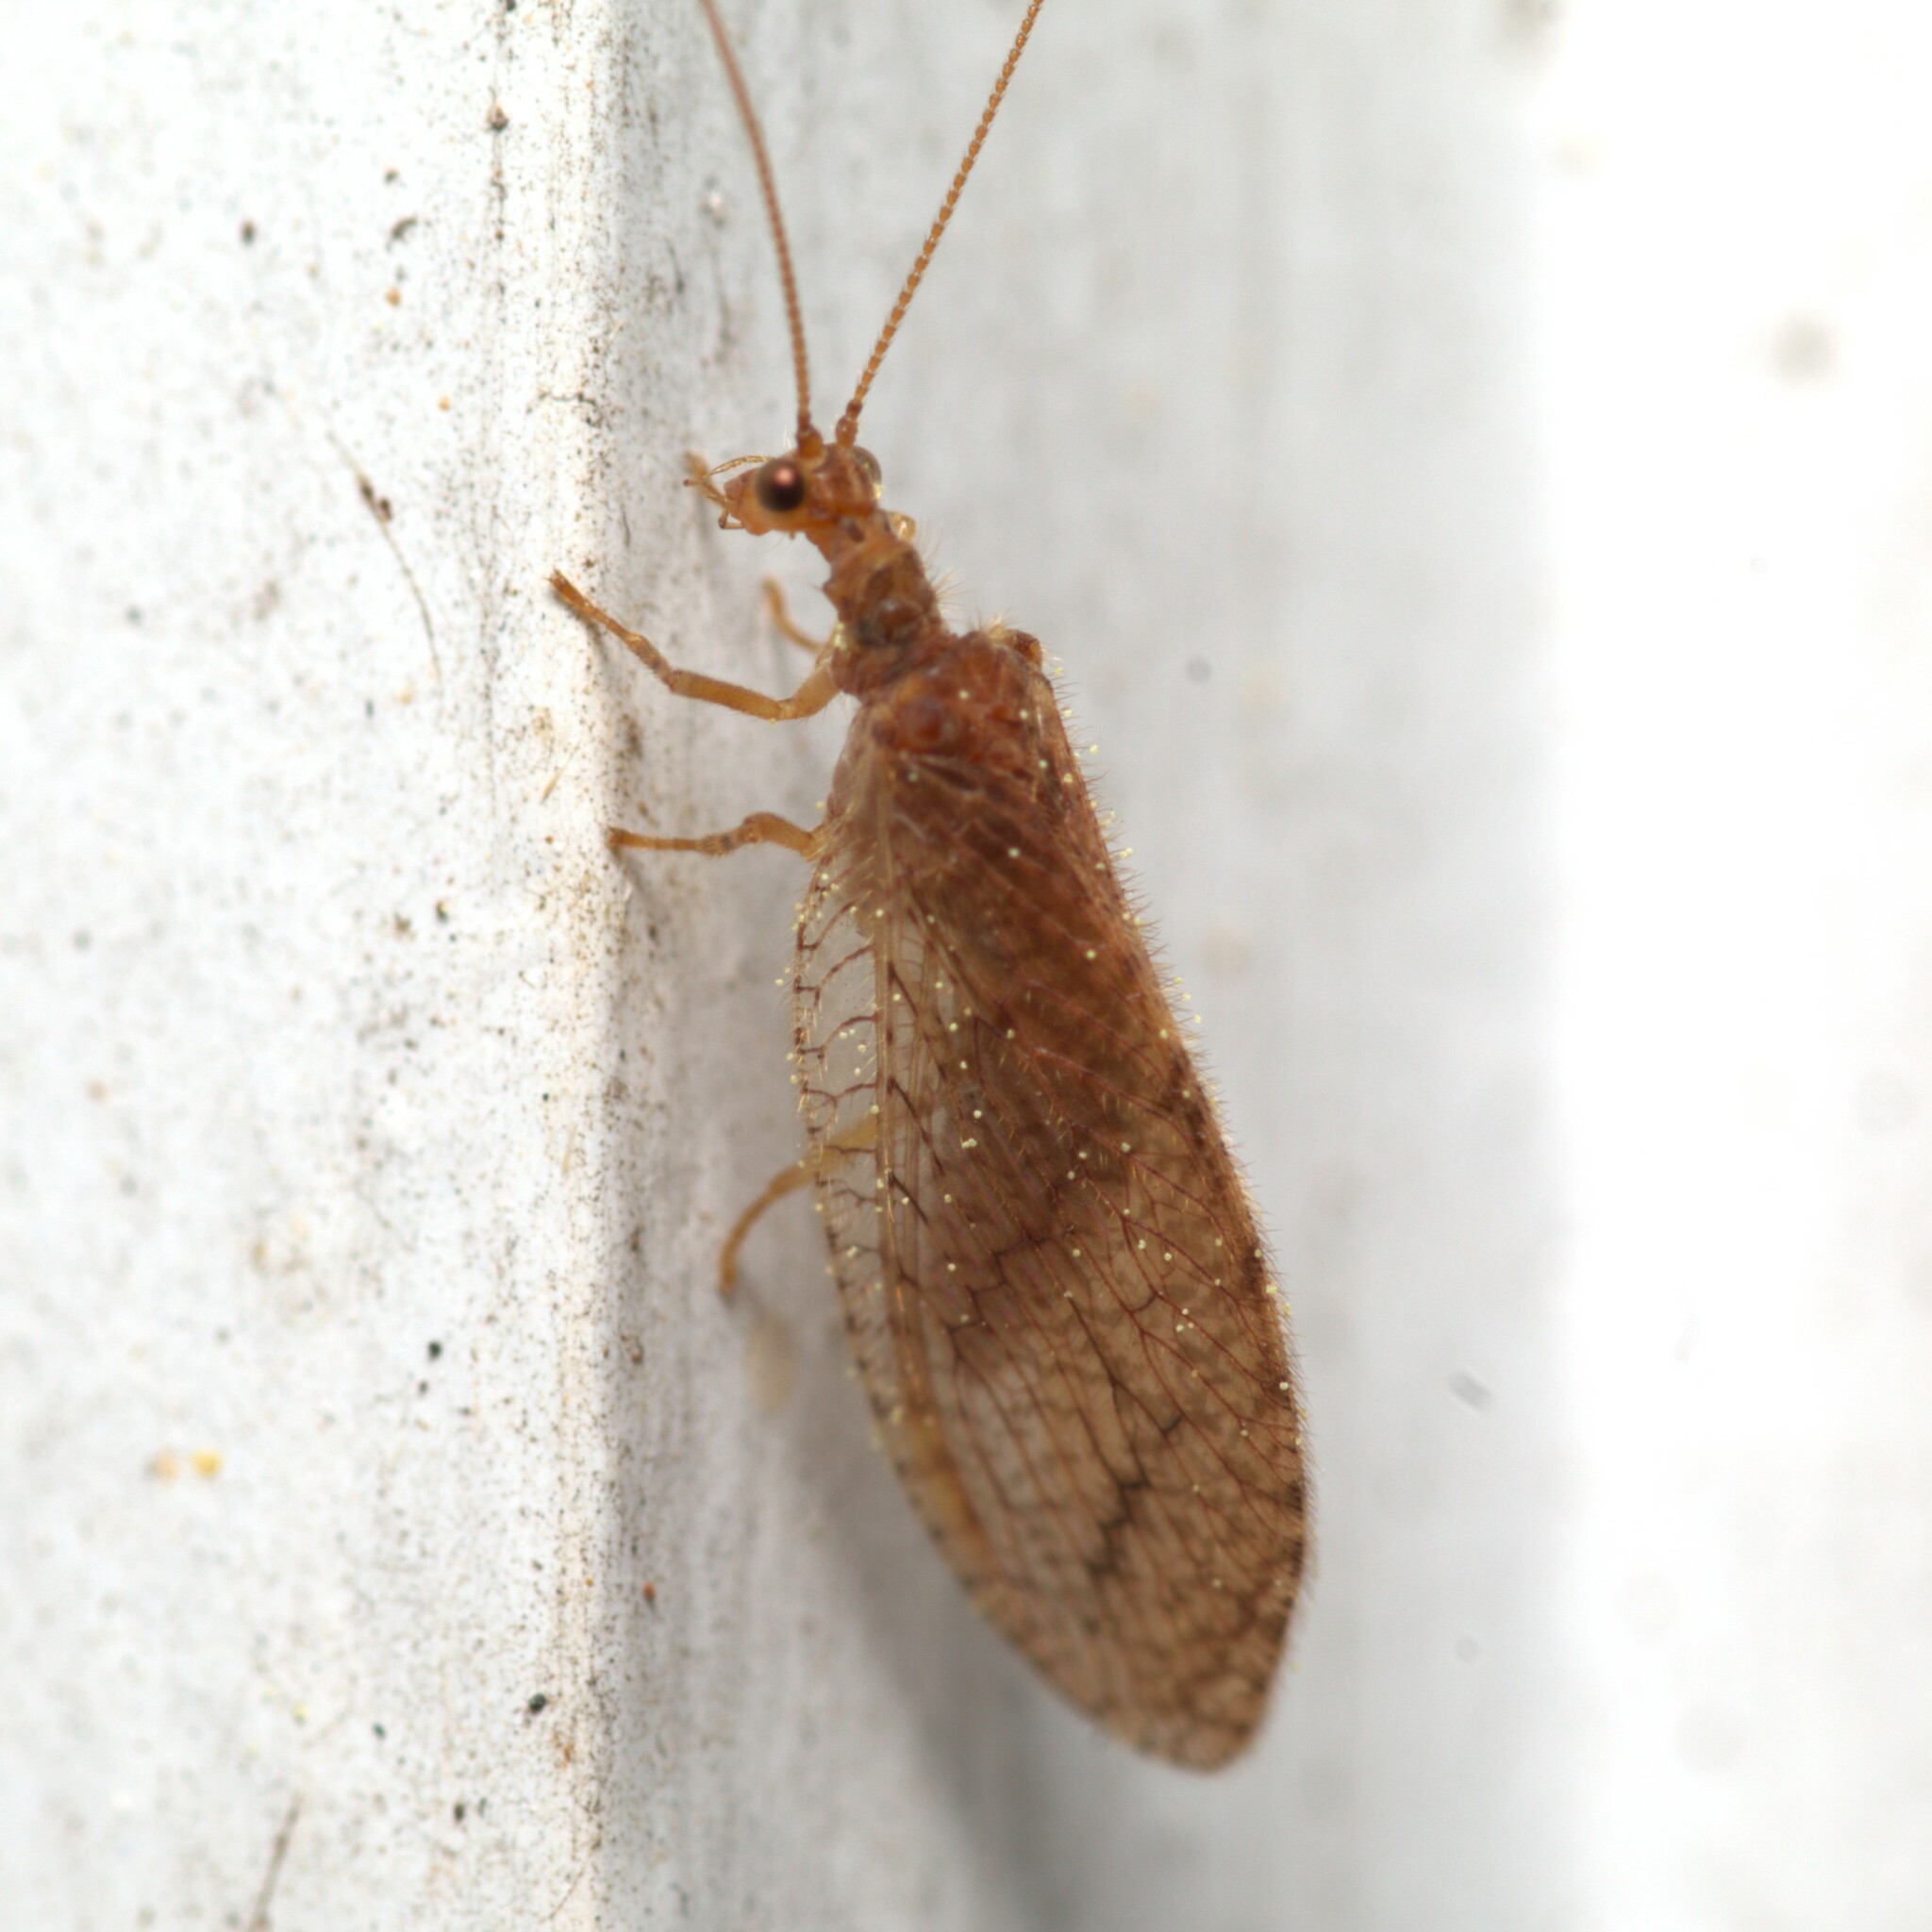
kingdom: Animalia
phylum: Arthropoda
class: Insecta
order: Neuroptera
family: Hemerobiidae
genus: Micromus
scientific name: Micromus posticus
